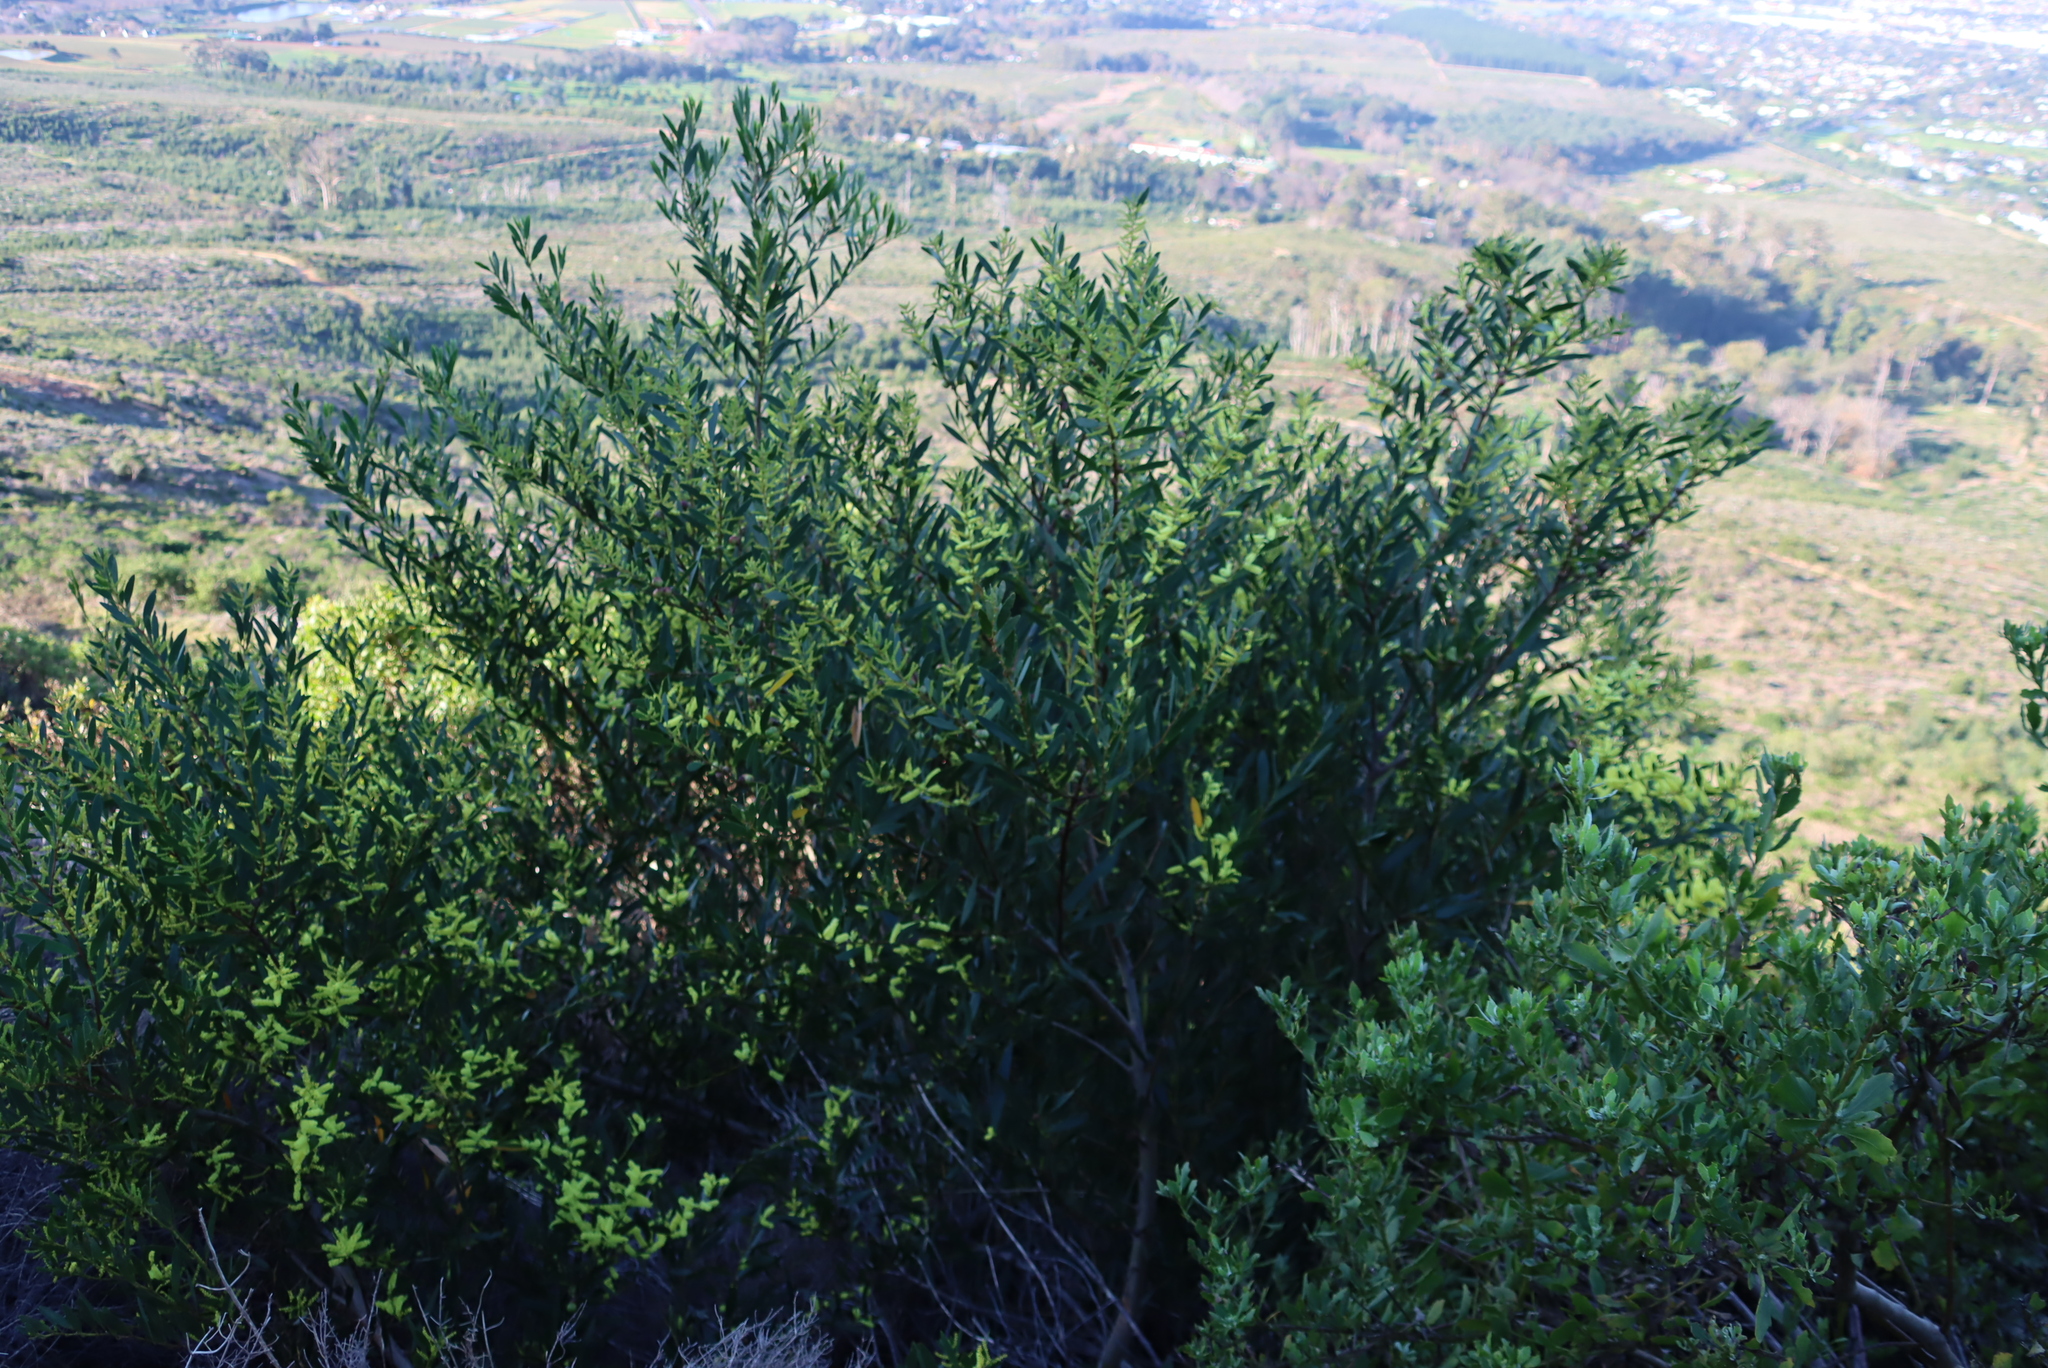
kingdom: Plantae
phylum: Tracheophyta
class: Magnoliopsida
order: Fabales
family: Fabaceae
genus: Acacia
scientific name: Acacia longifolia
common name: Sydney golden wattle
